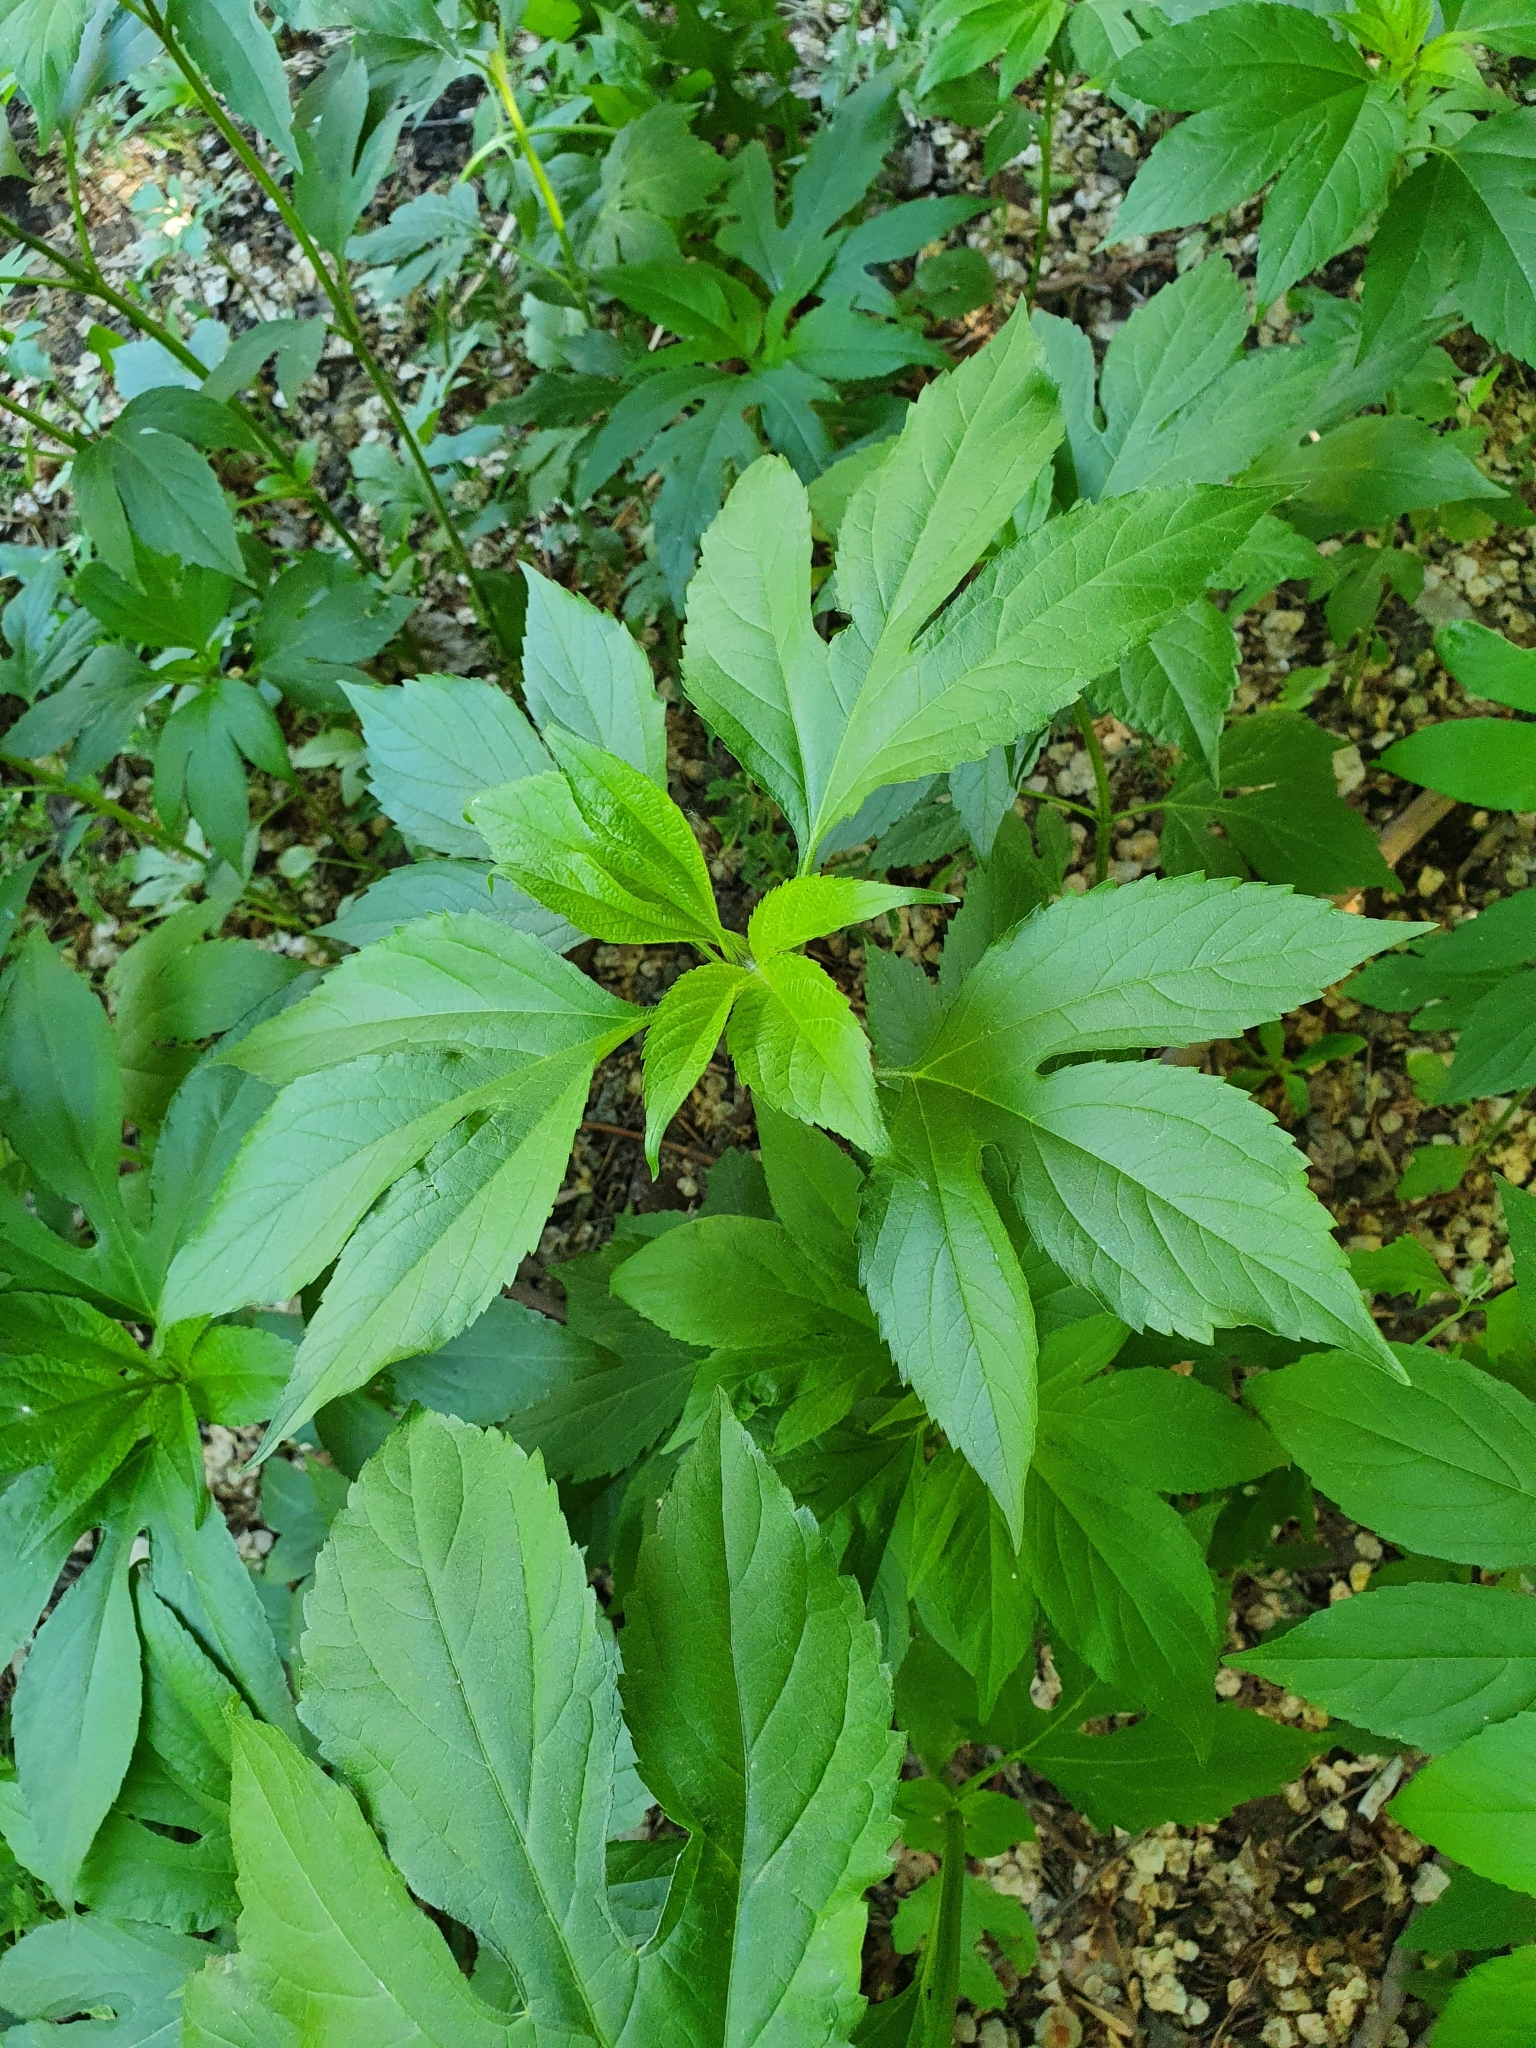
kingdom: Plantae
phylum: Tracheophyta
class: Magnoliopsida
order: Asterales
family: Asteraceae
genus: Ambrosia
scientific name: Ambrosia trifida
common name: Giant ragweed
